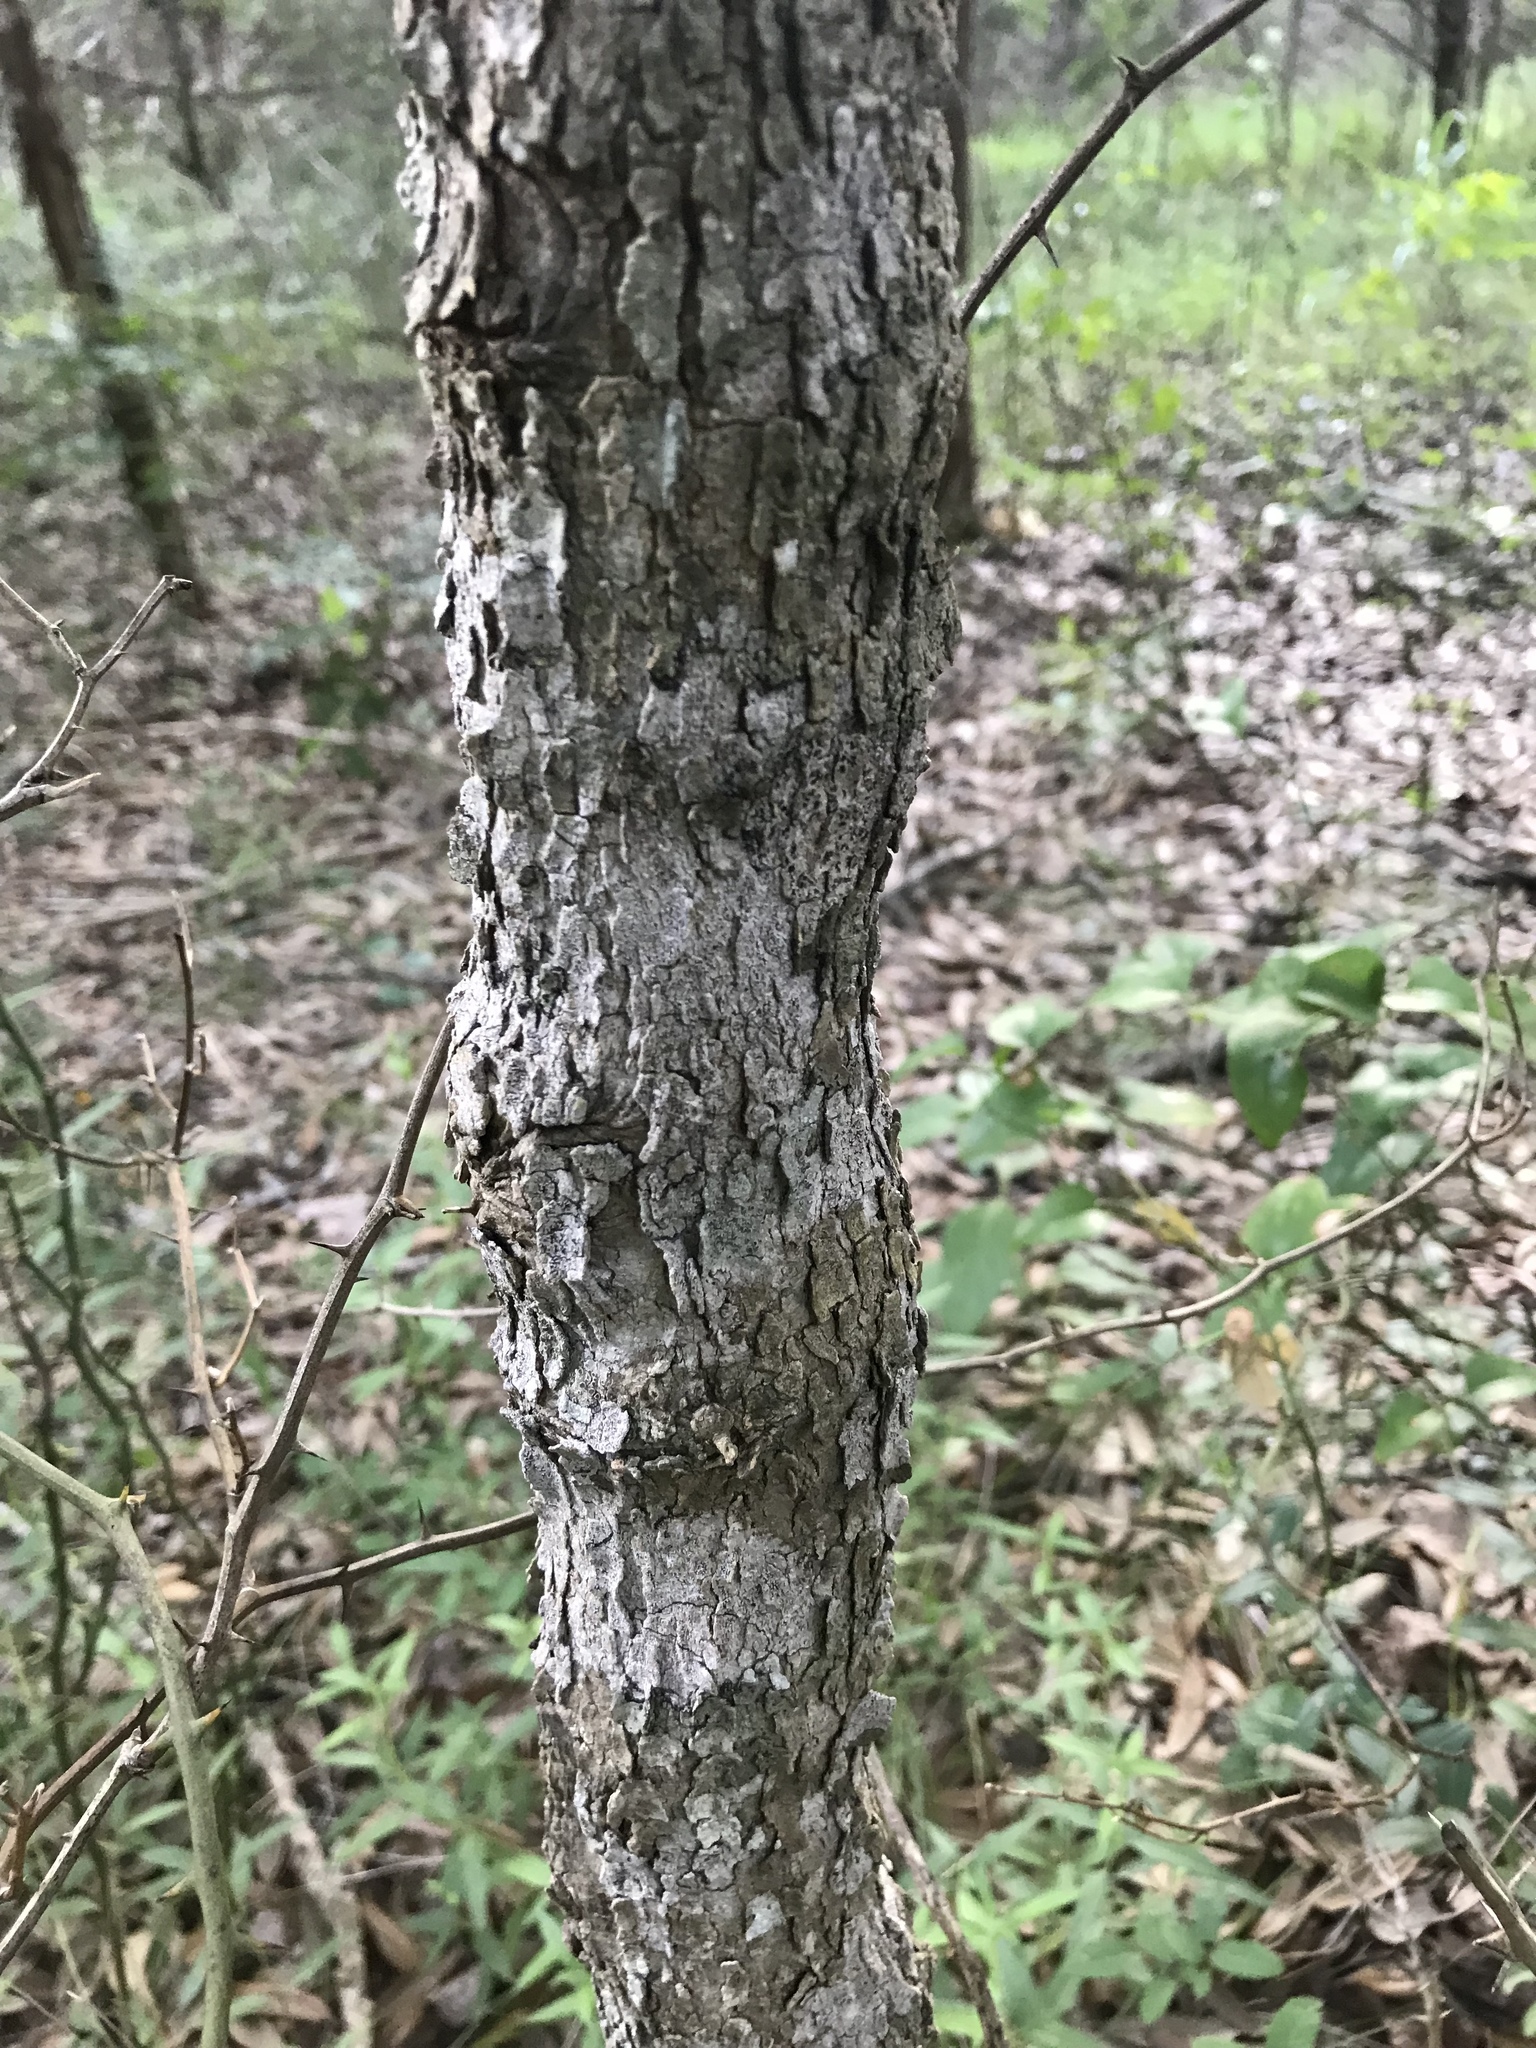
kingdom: Plantae
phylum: Tracheophyta
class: Magnoliopsida
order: Sapindales
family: Sapindaceae
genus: Sapindus
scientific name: Sapindus drummondii
